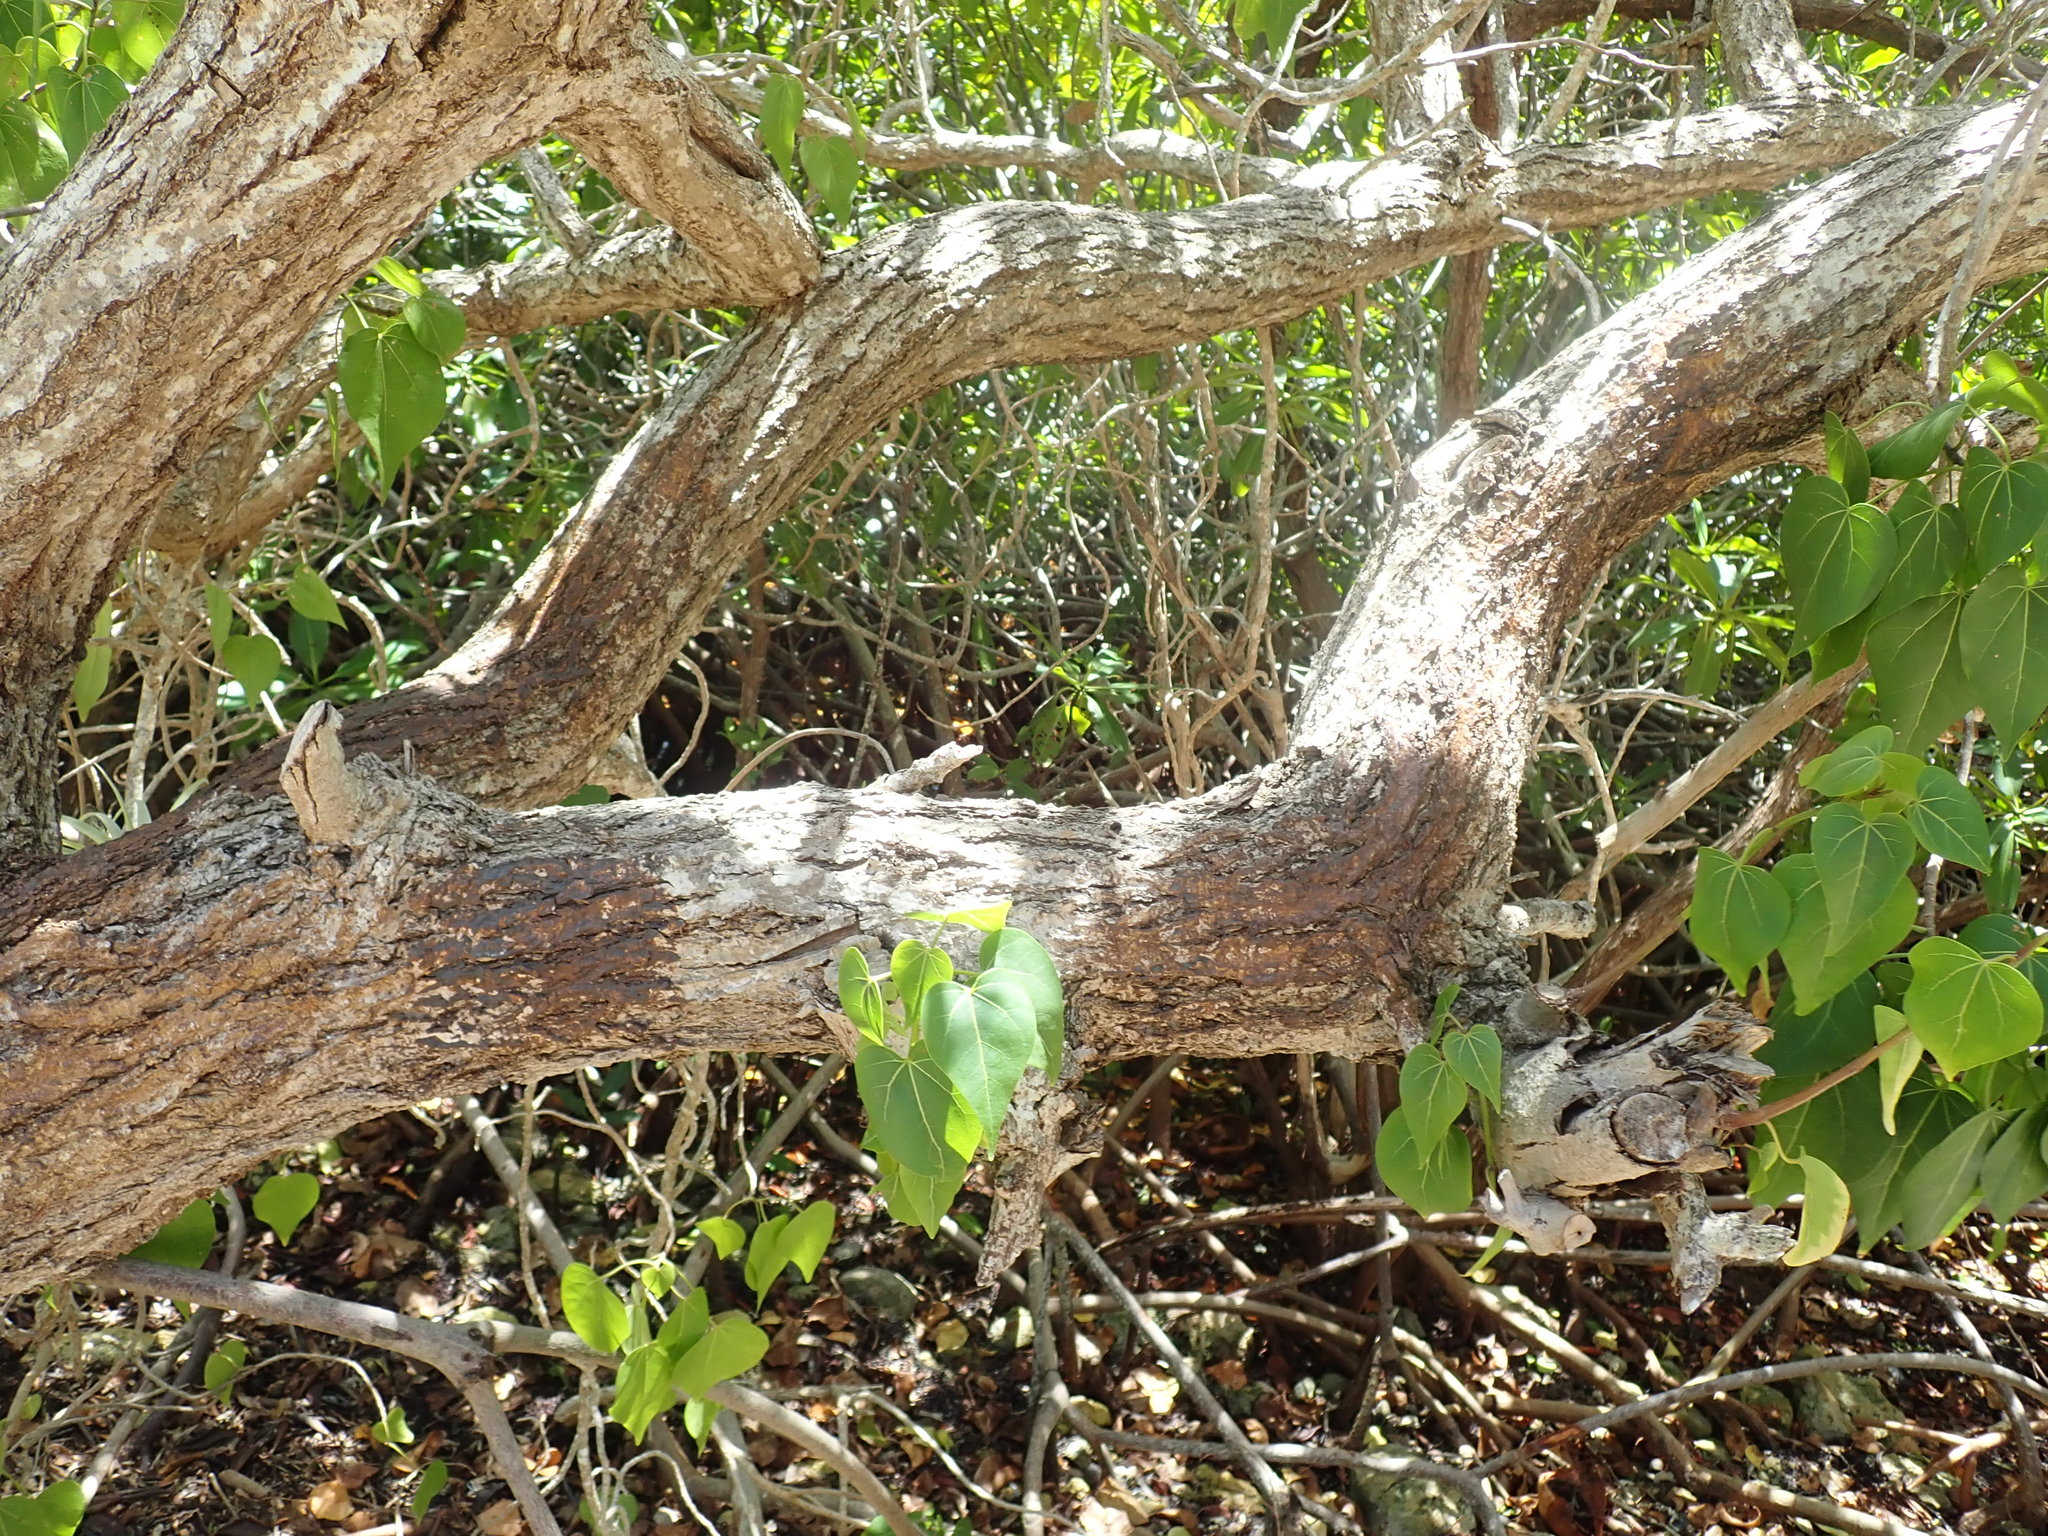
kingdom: Plantae
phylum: Tracheophyta
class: Magnoliopsida
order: Malvales
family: Malvaceae
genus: Thespesia
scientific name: Thespesia populnea
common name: Seaside mahoe
